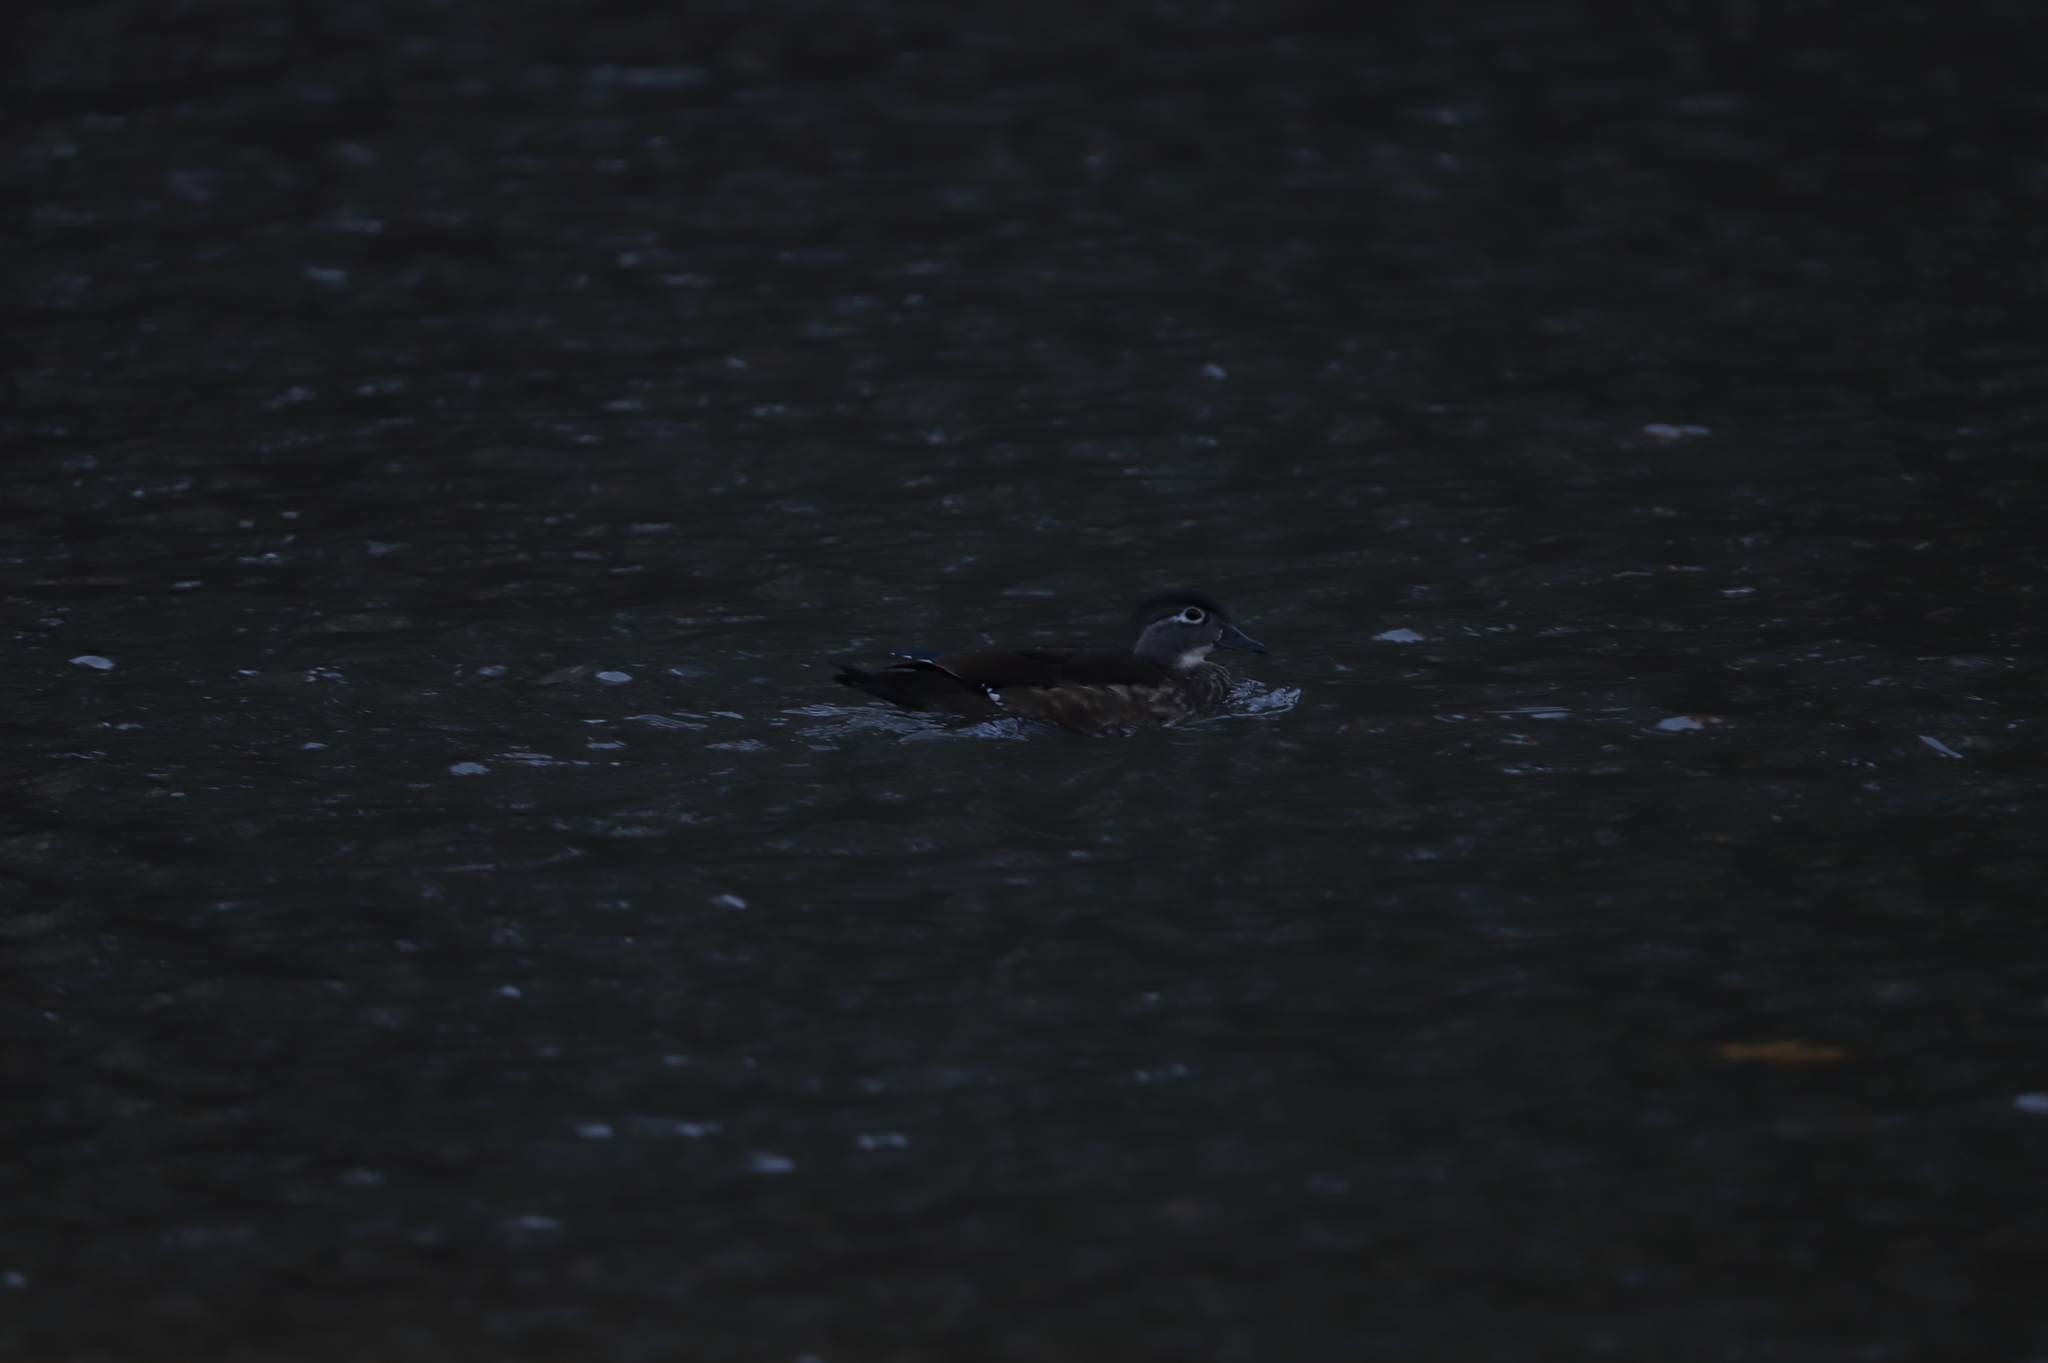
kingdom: Animalia
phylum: Chordata
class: Aves
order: Anseriformes
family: Anatidae
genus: Aix
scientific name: Aix sponsa
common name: Wood duck
